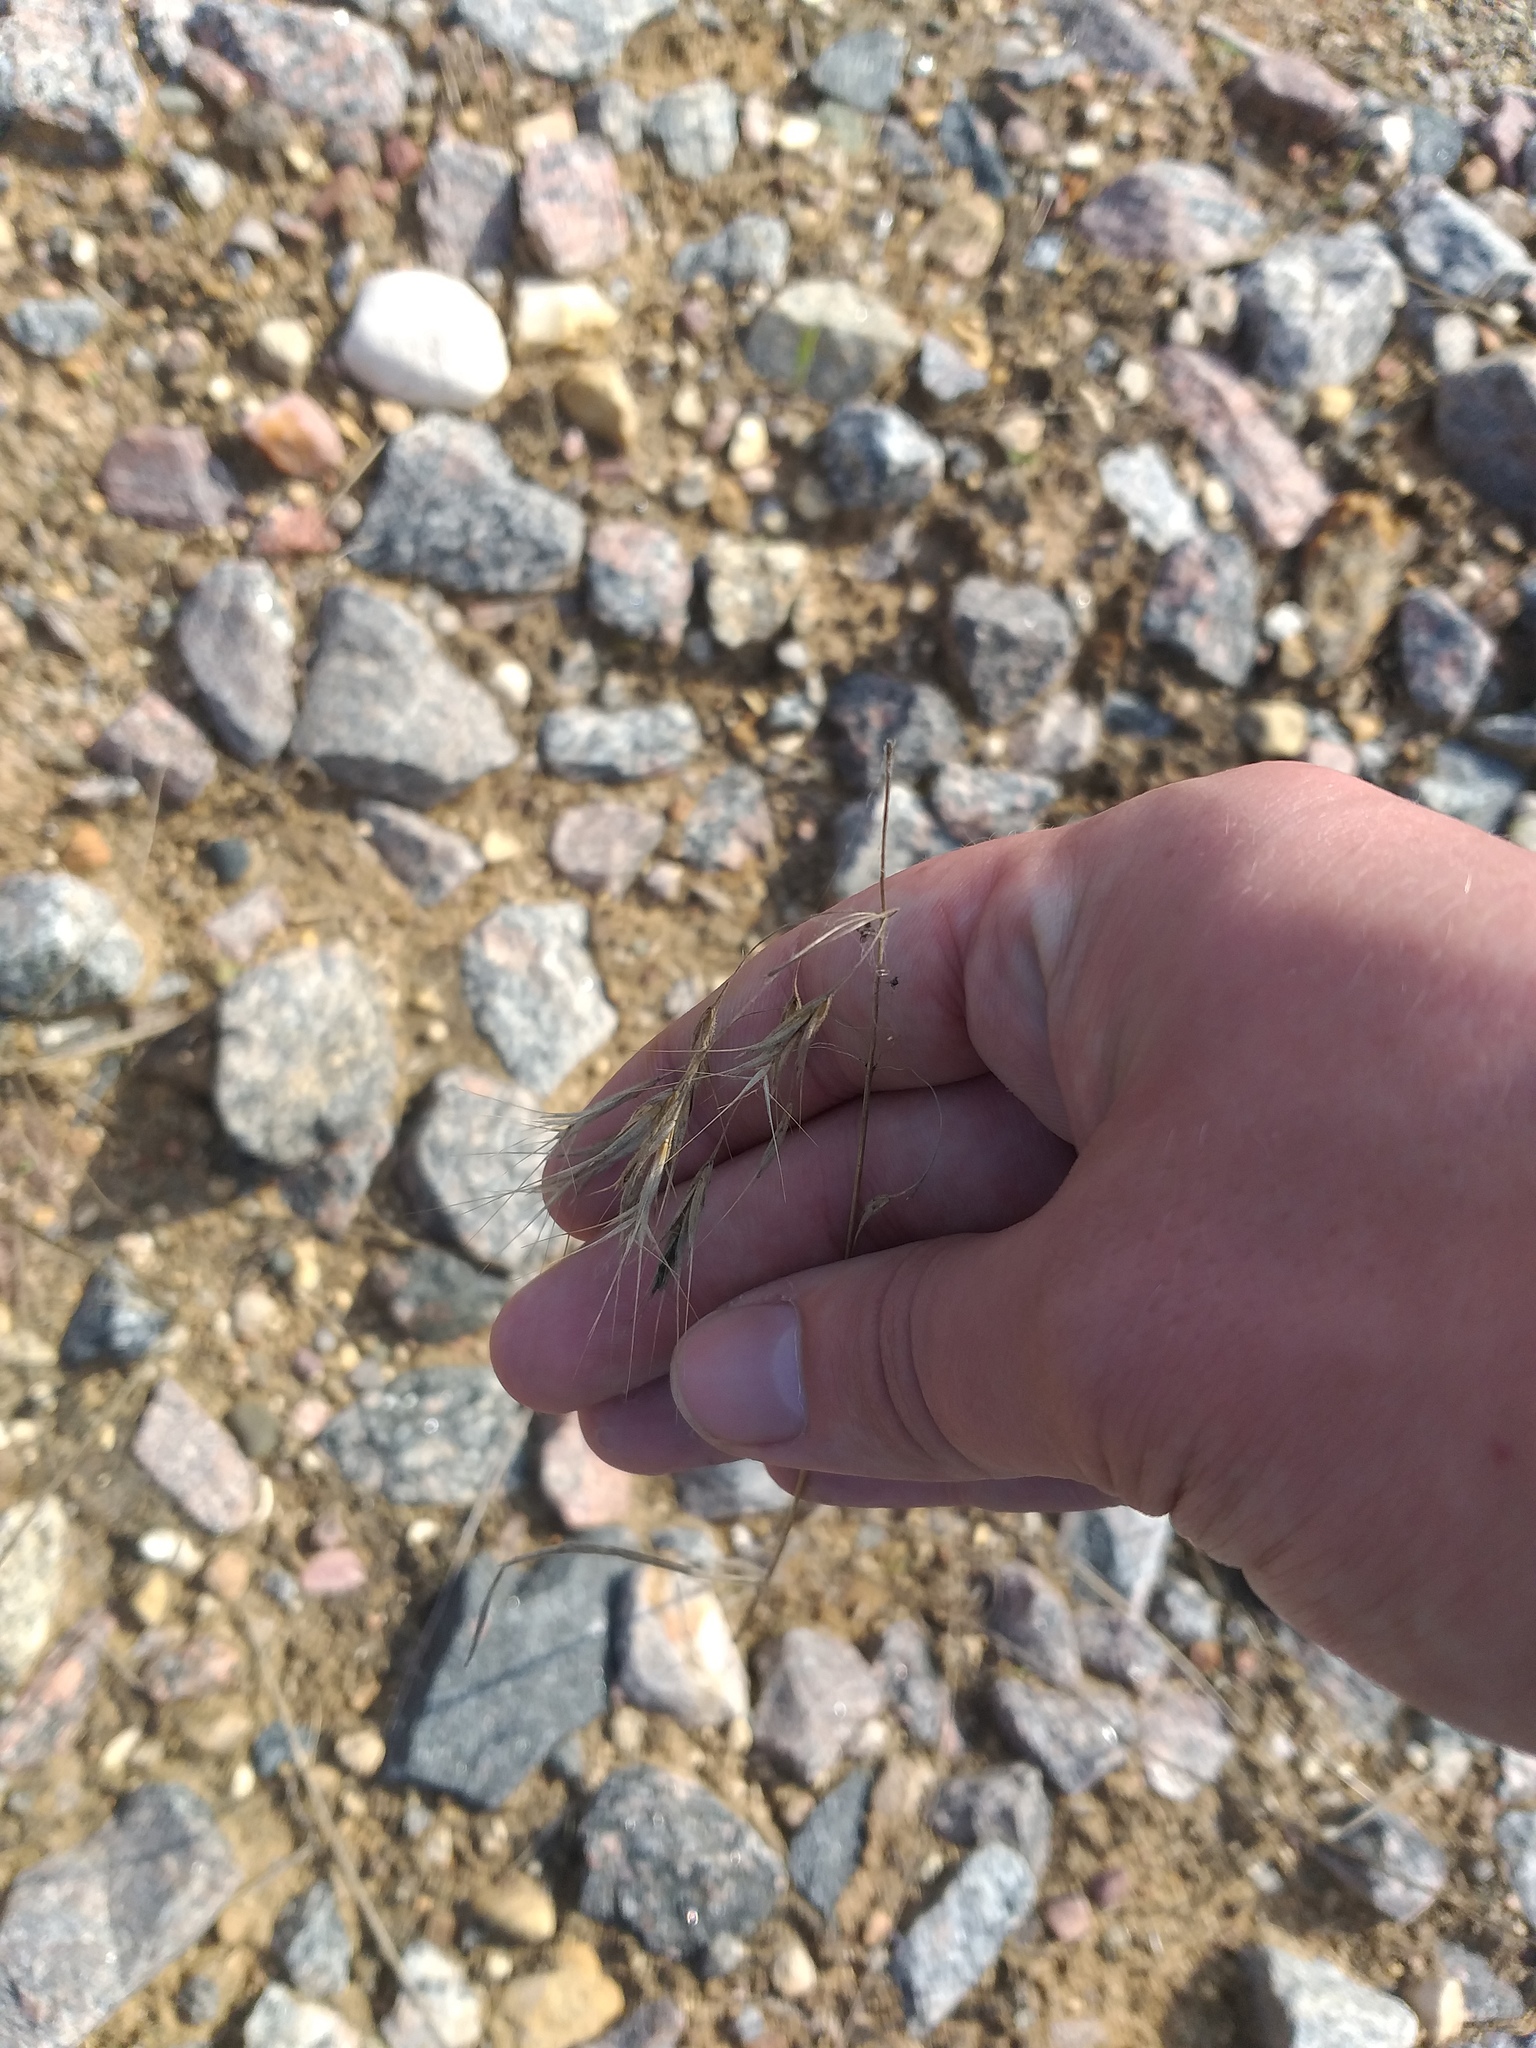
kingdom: Plantae
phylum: Tracheophyta
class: Liliopsida
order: Poales
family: Poaceae
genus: Bromus
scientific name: Bromus tectorum
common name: Cheatgrass
